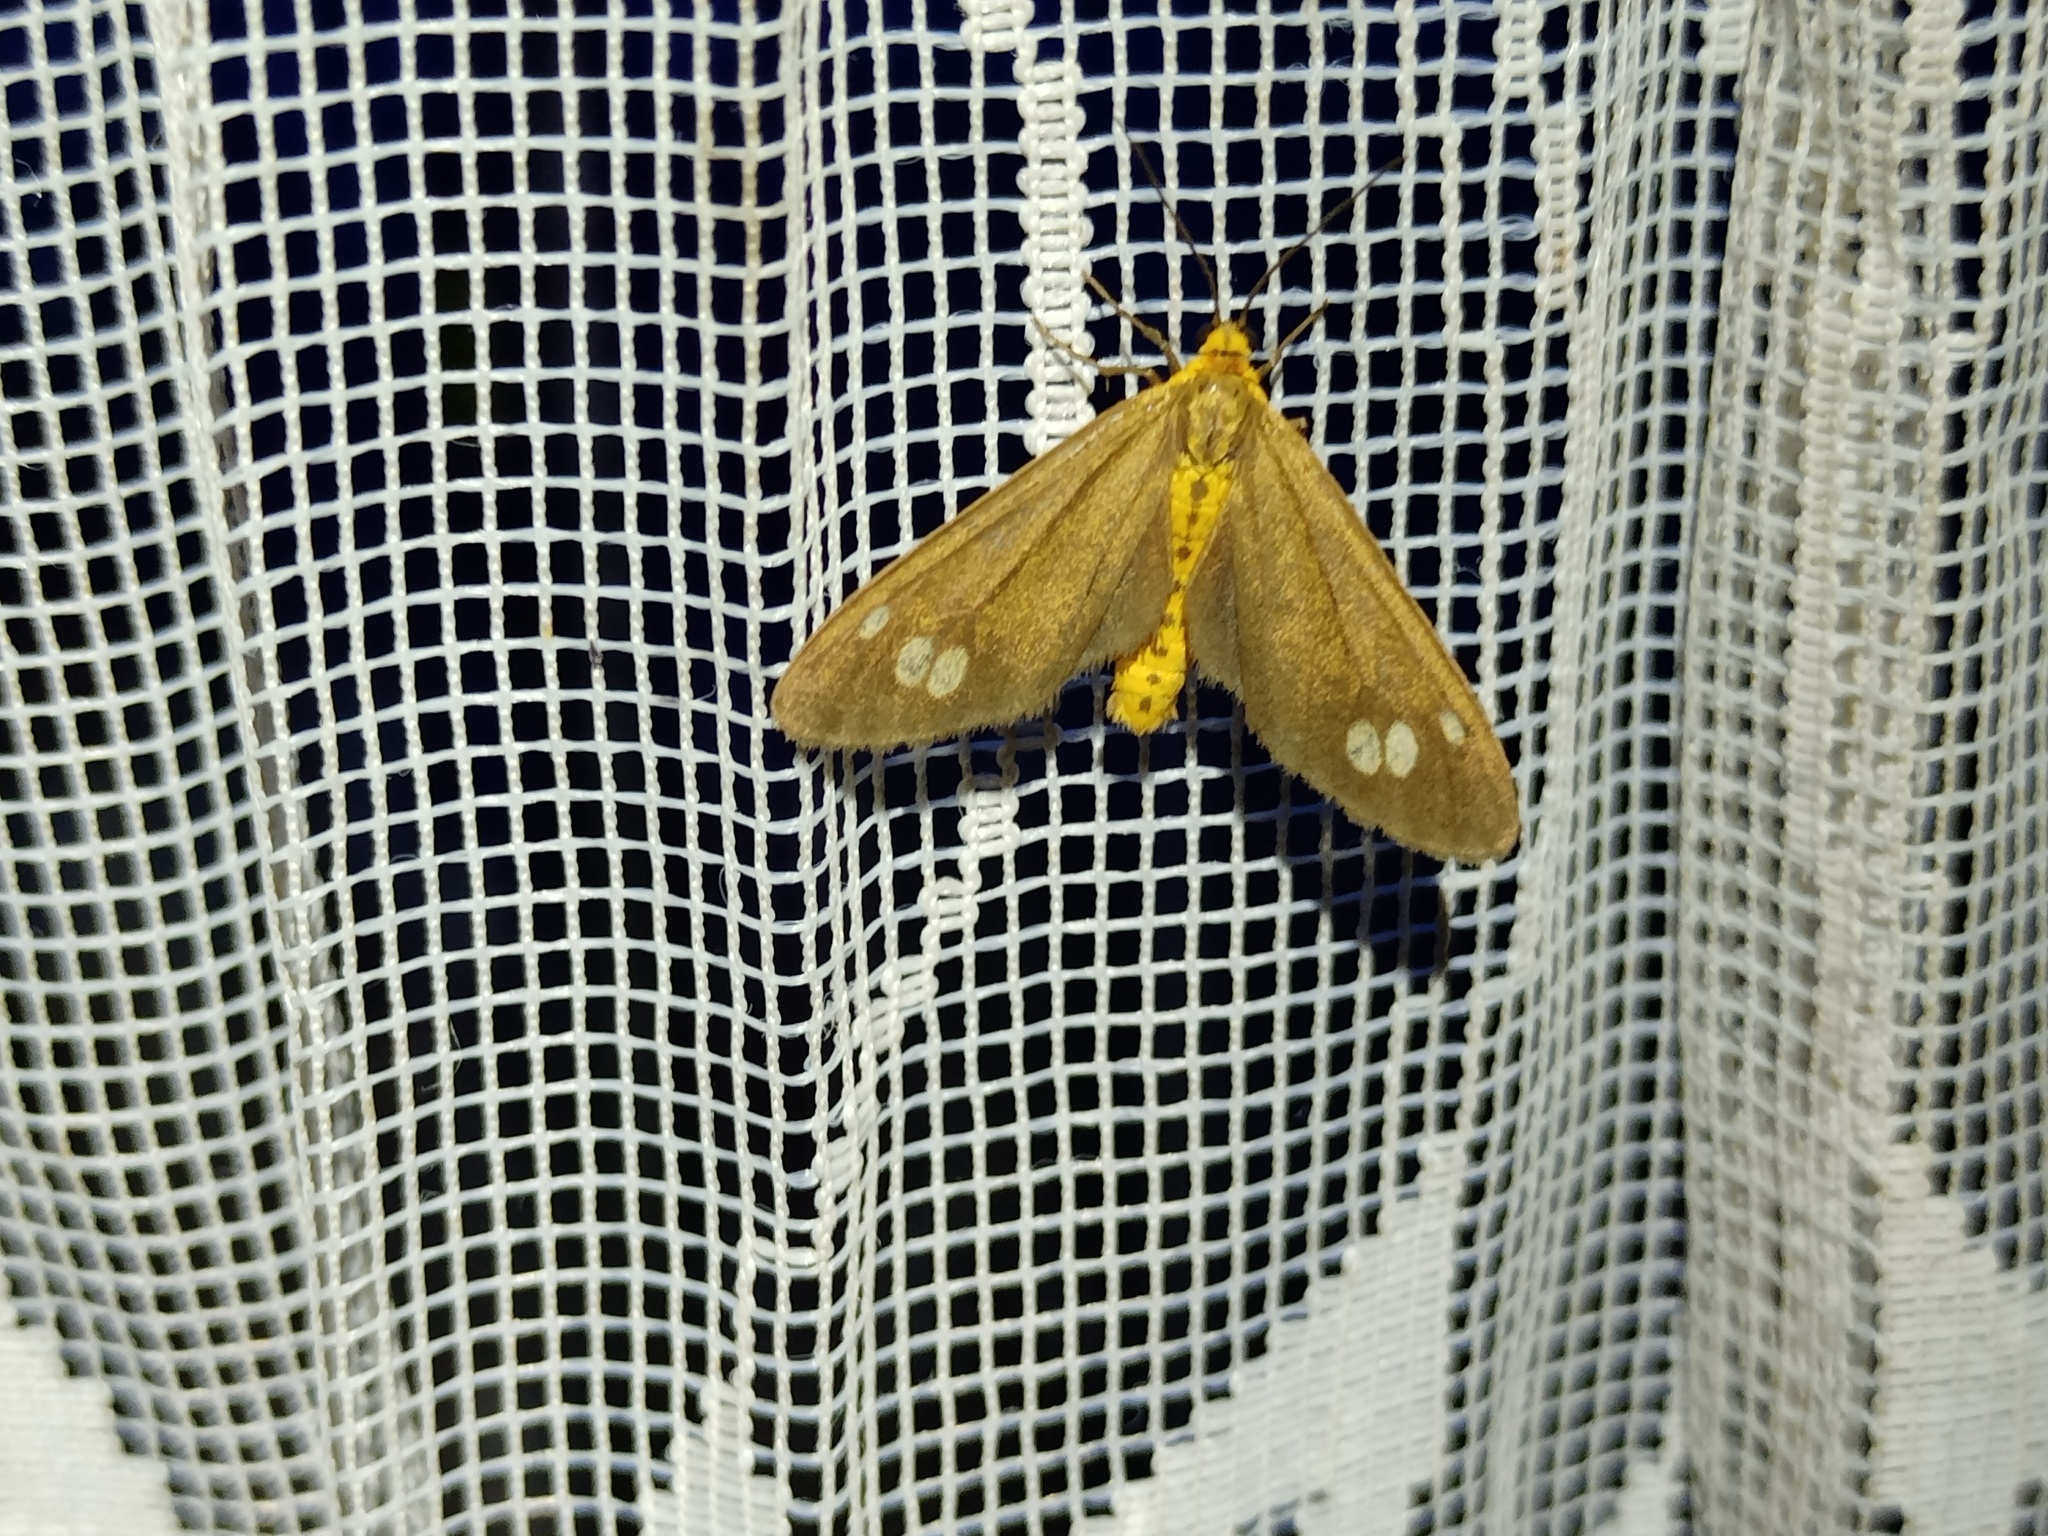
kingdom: Animalia
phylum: Arthropoda
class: Insecta
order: Lepidoptera
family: Erebidae
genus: Dysauxes
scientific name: Dysauxes ancilla
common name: The handmaid
